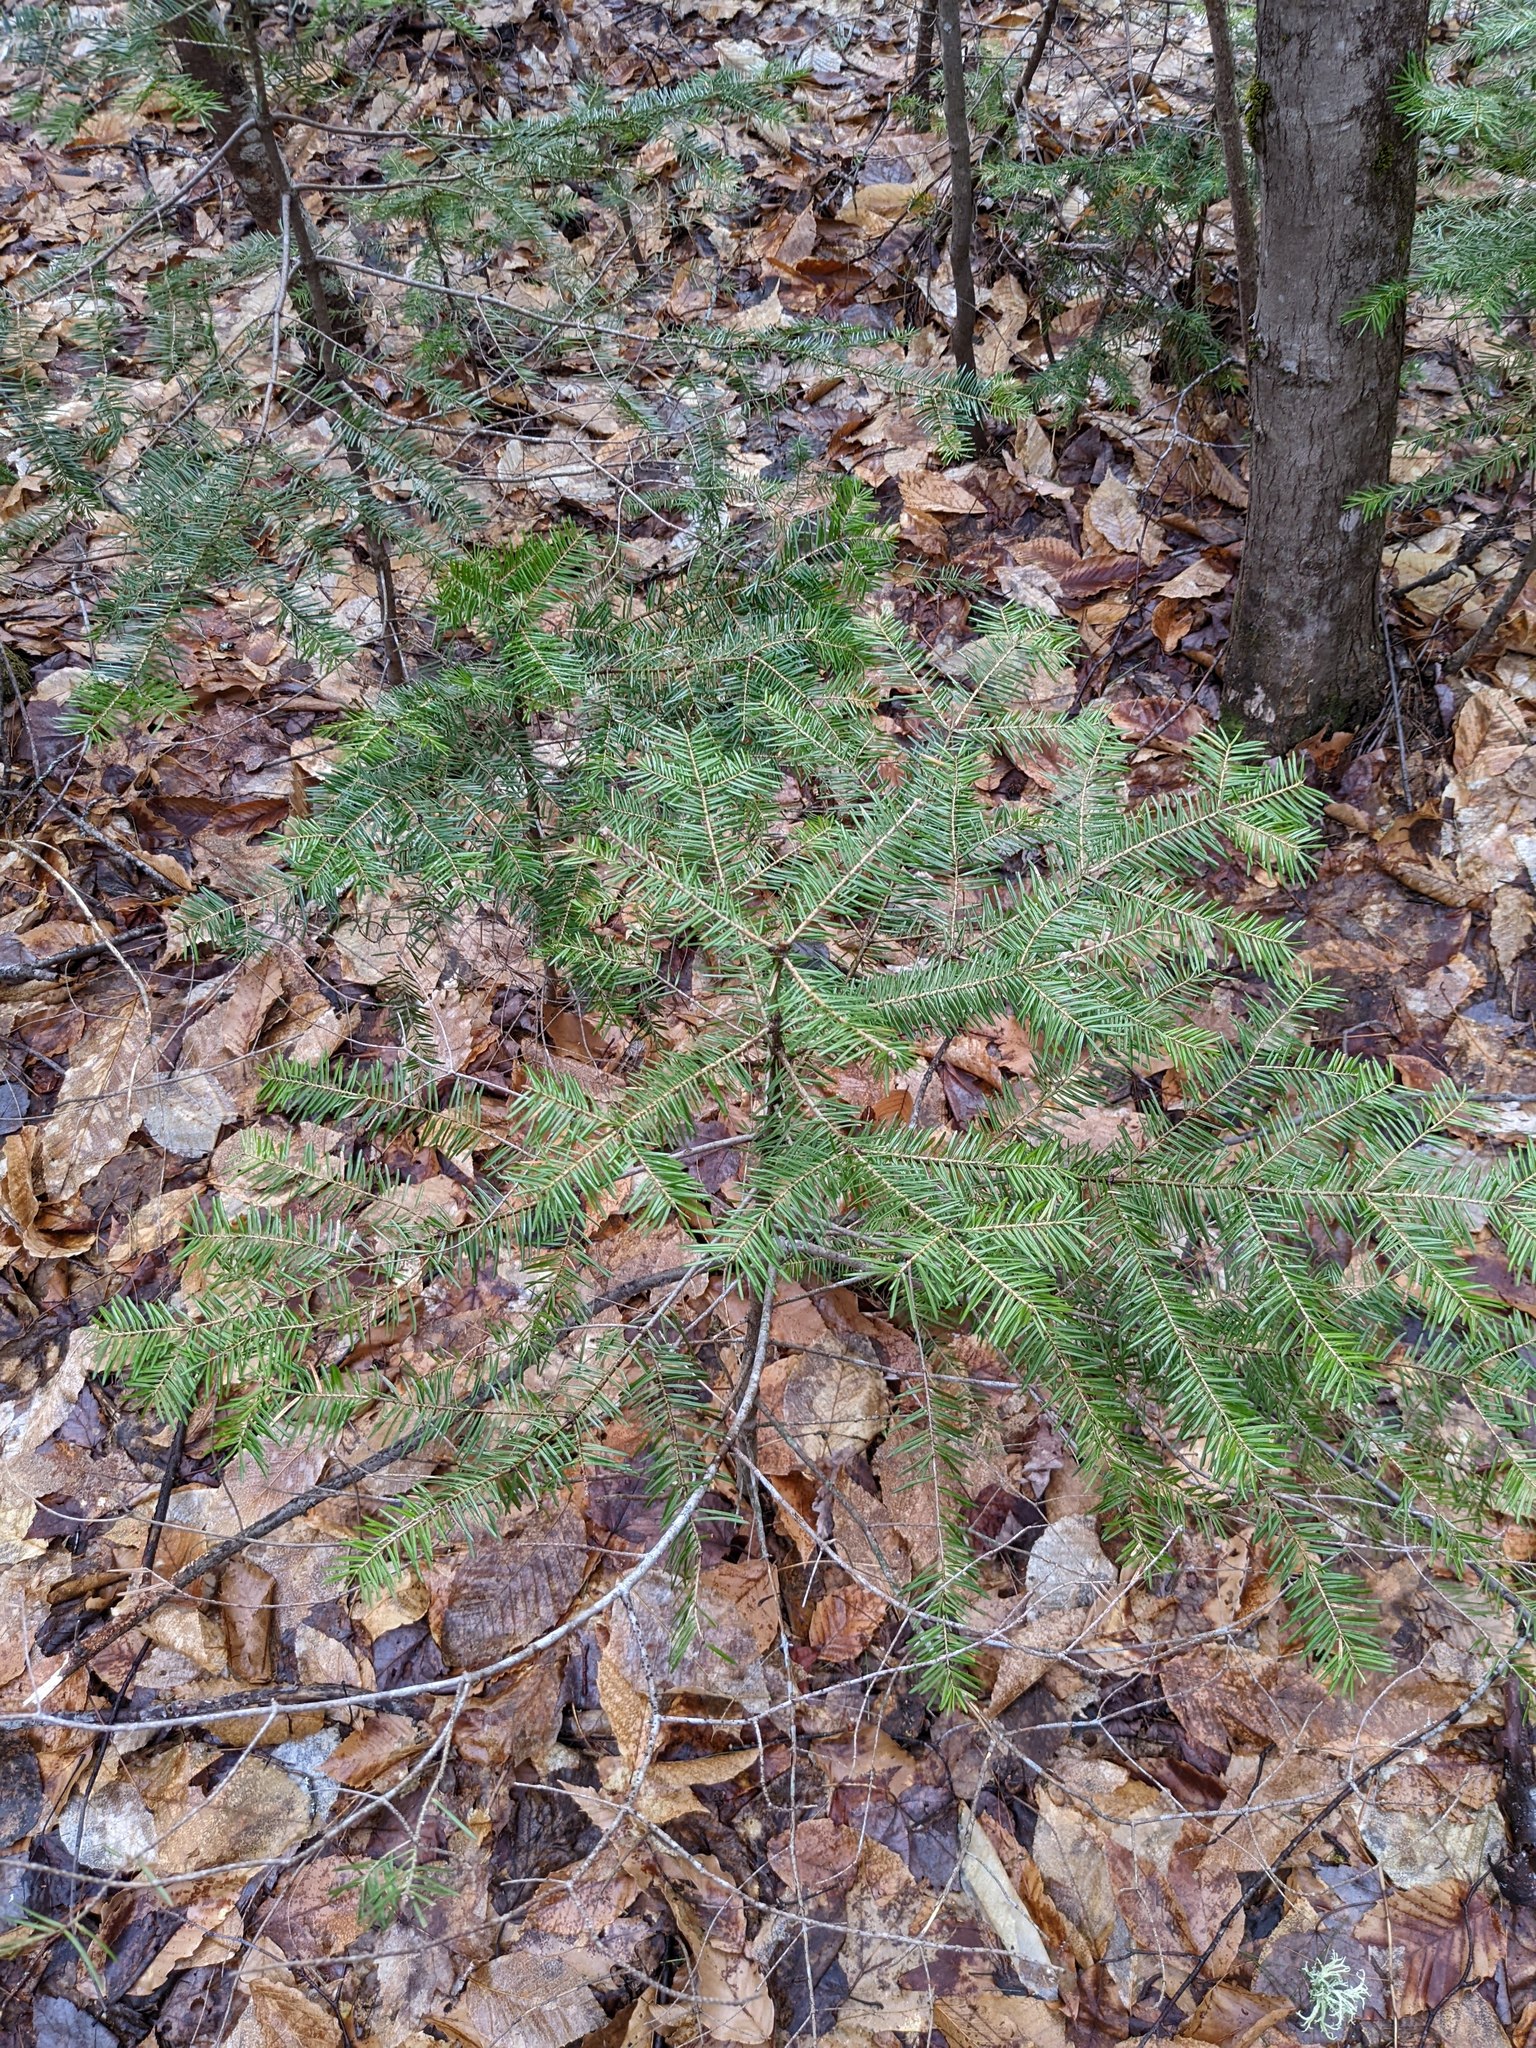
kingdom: Plantae
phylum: Tracheophyta
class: Pinopsida
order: Pinales
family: Pinaceae
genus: Abies
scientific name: Abies balsamea
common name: Balsam fir
